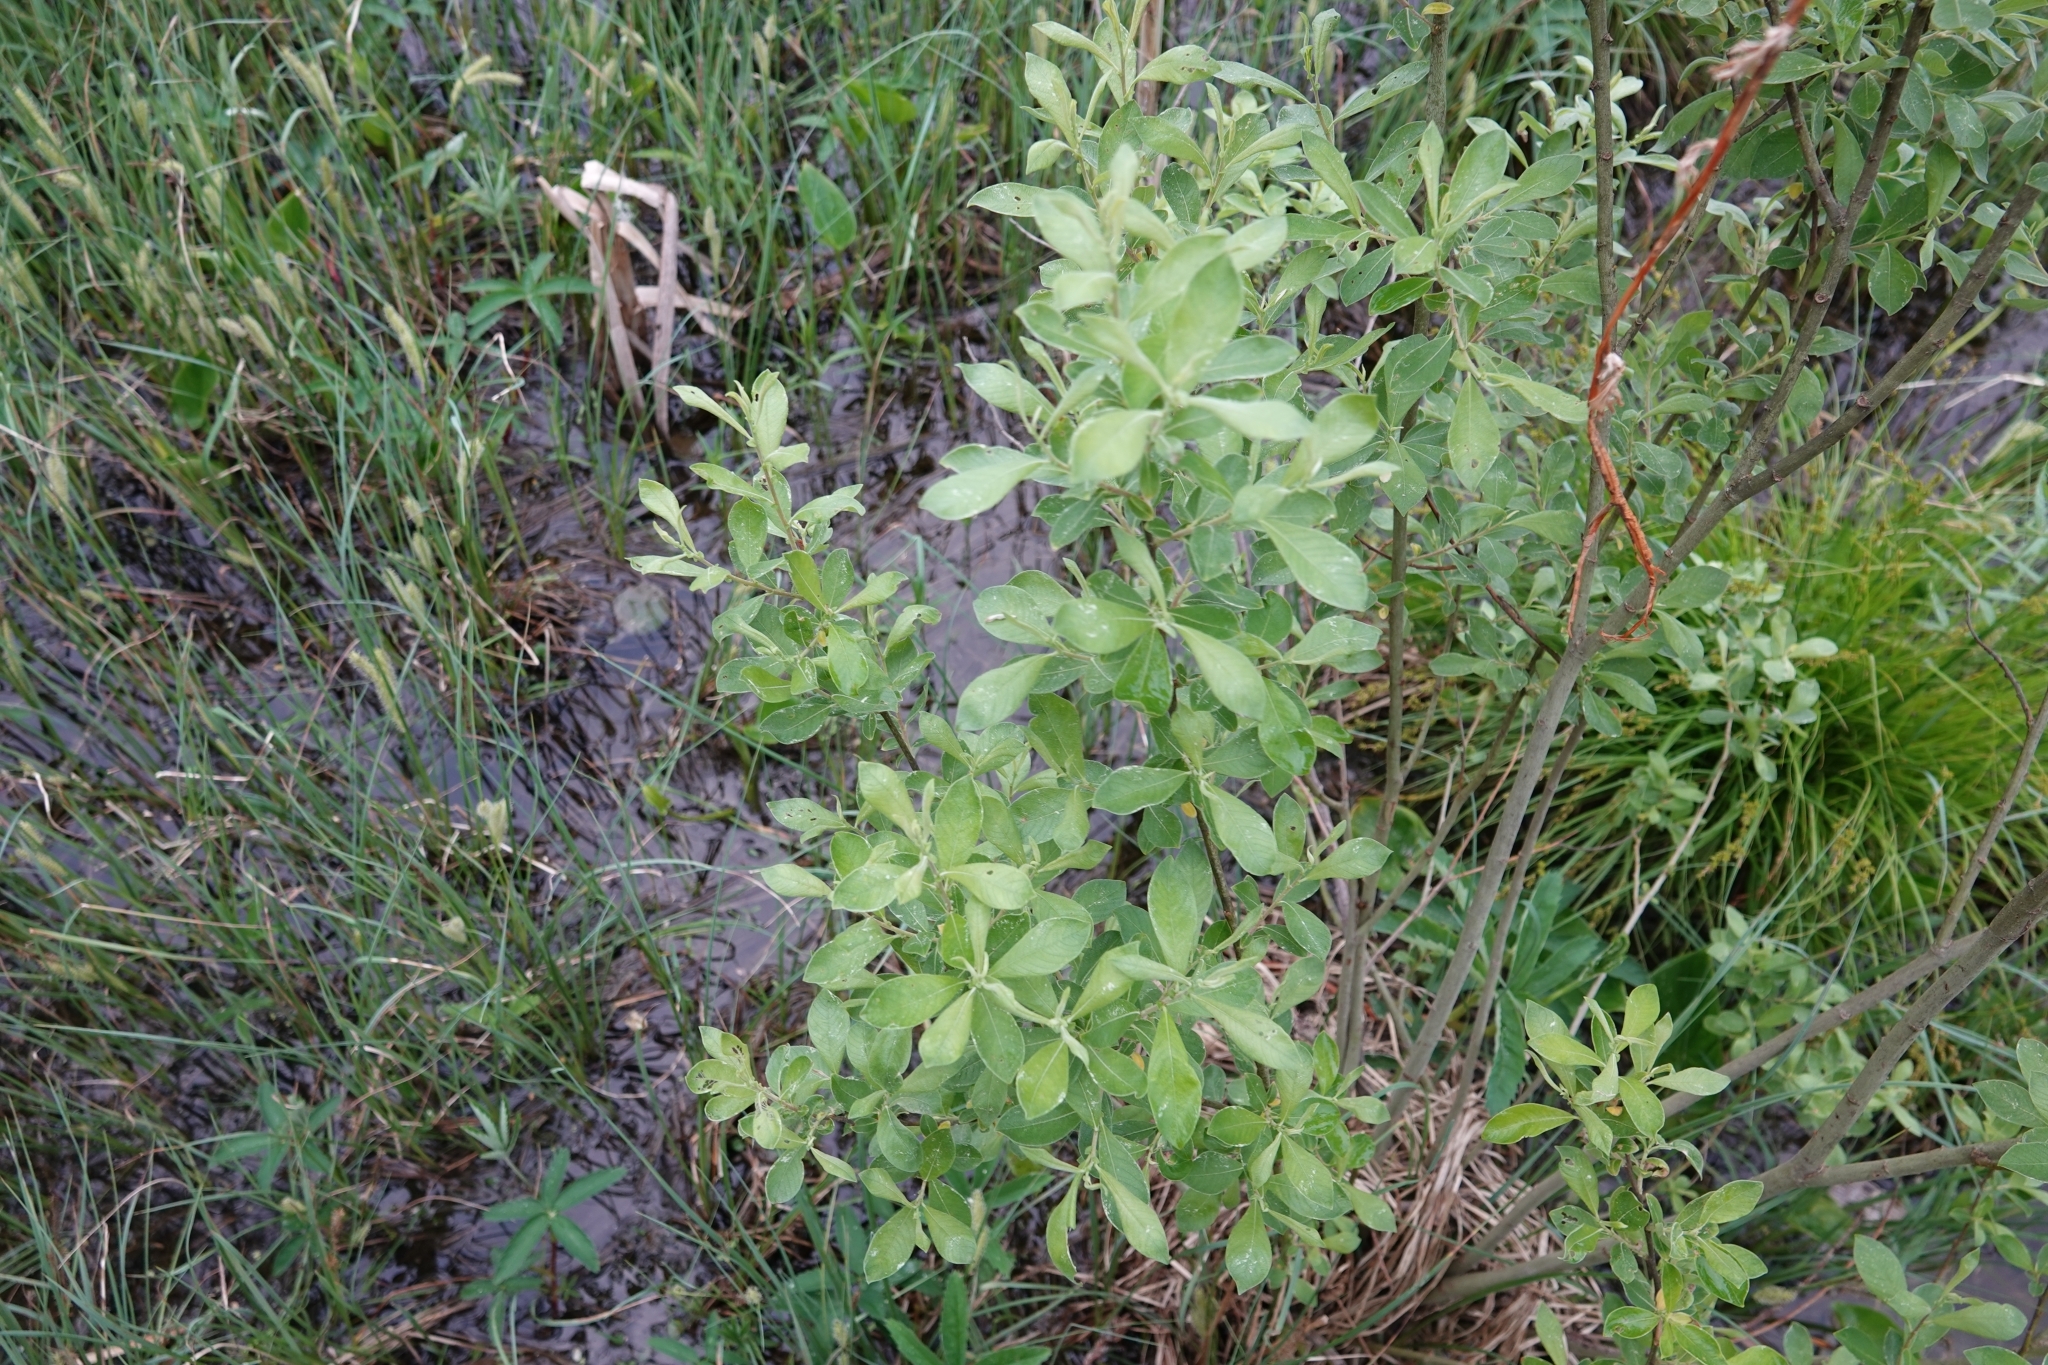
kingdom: Plantae
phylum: Tracheophyta
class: Magnoliopsida
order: Malpighiales
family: Salicaceae
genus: Salix
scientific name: Salix cinerea
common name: Common sallow
